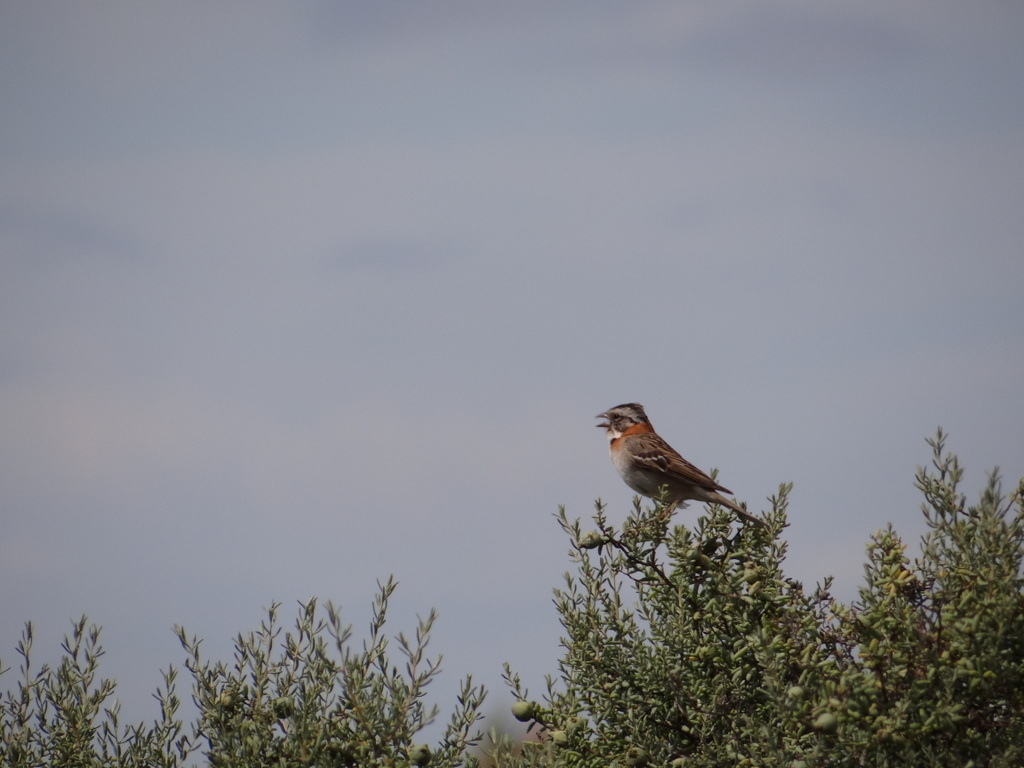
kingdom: Animalia
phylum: Chordata
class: Aves
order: Passeriformes
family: Passerellidae
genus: Zonotrichia
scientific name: Zonotrichia capensis
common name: Rufous-collared sparrow
